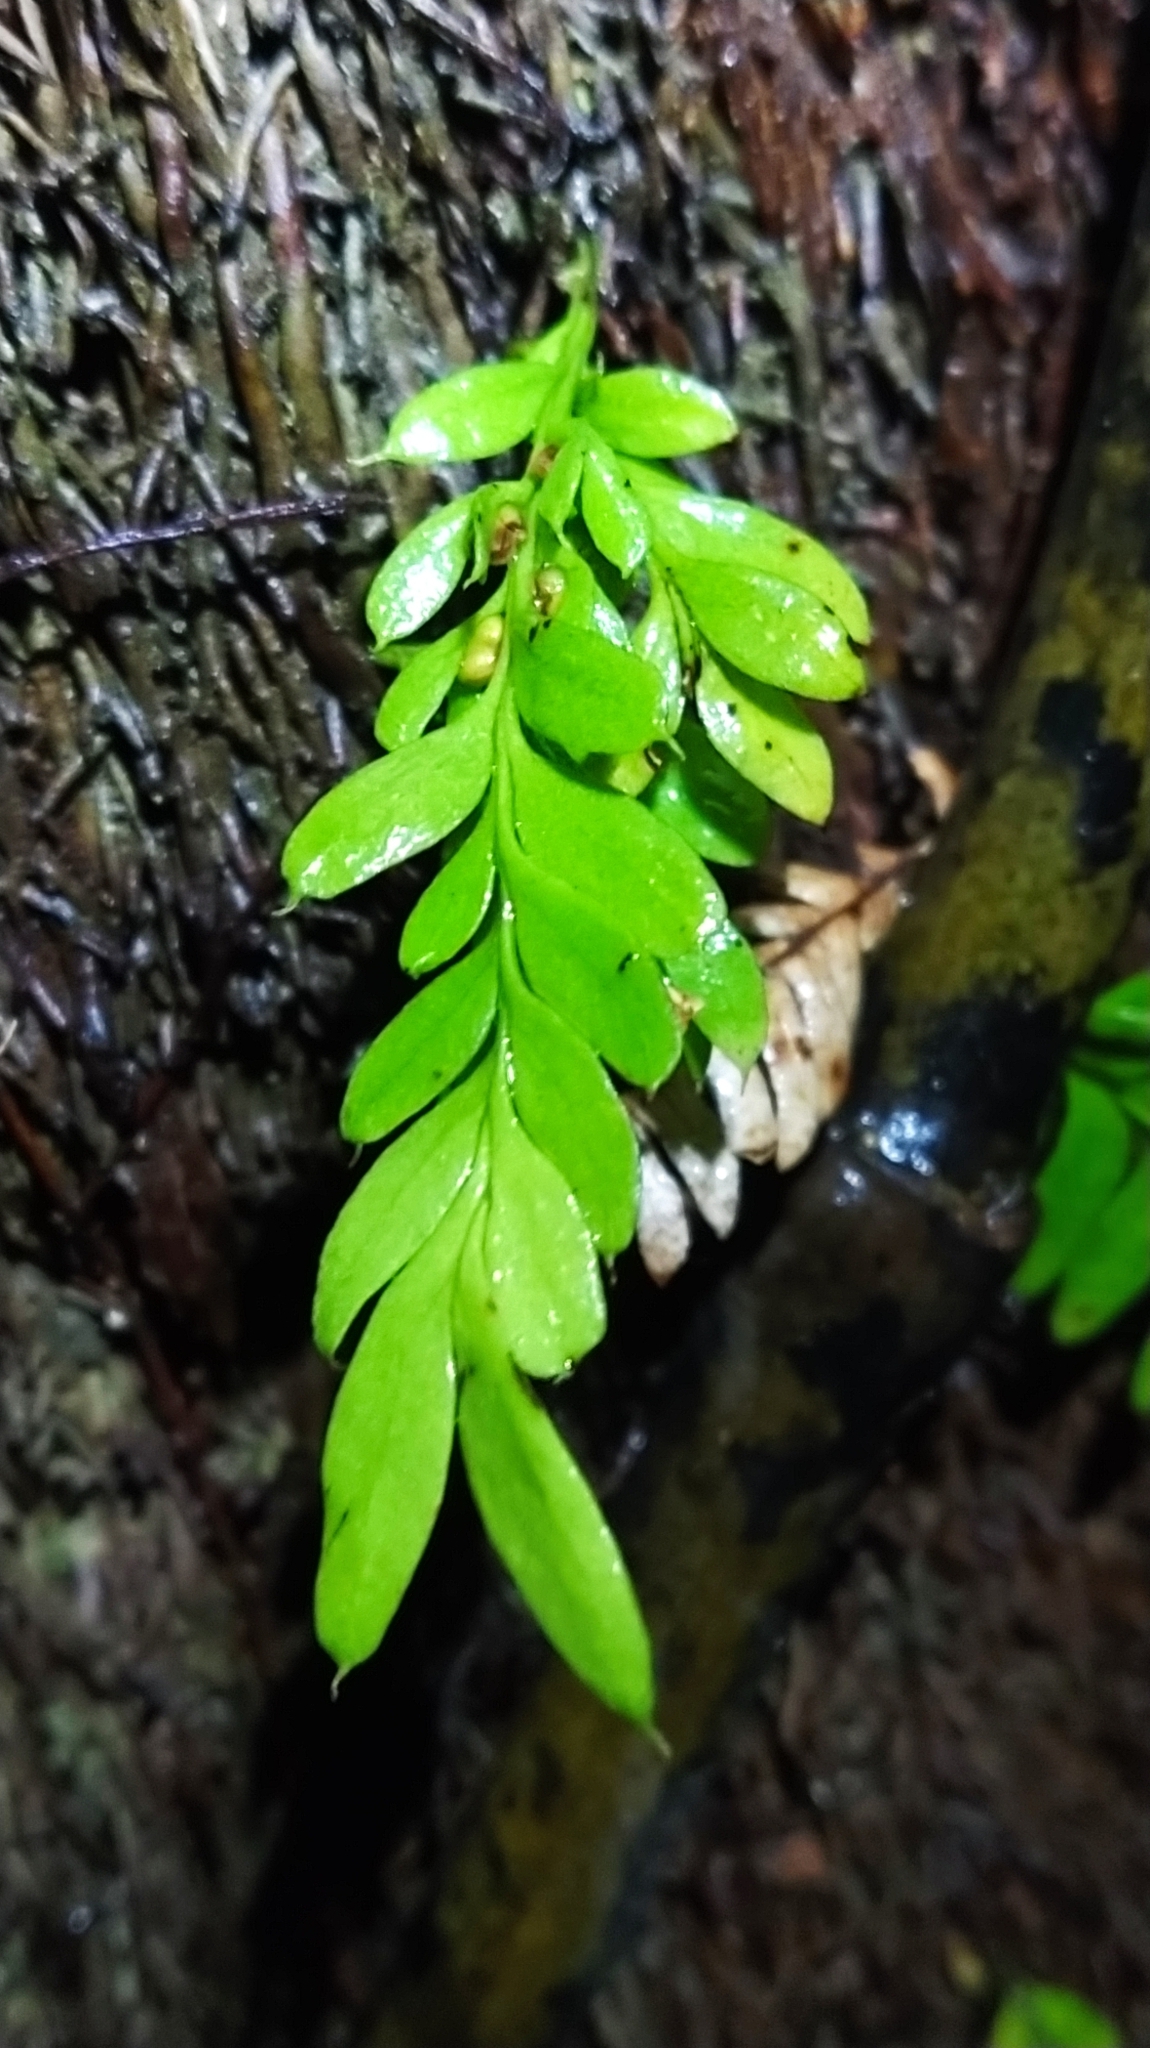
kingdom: Plantae
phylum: Tracheophyta
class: Polypodiopsida
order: Psilotales
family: Psilotaceae
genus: Tmesipteris
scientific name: Tmesipteris lanceolata
